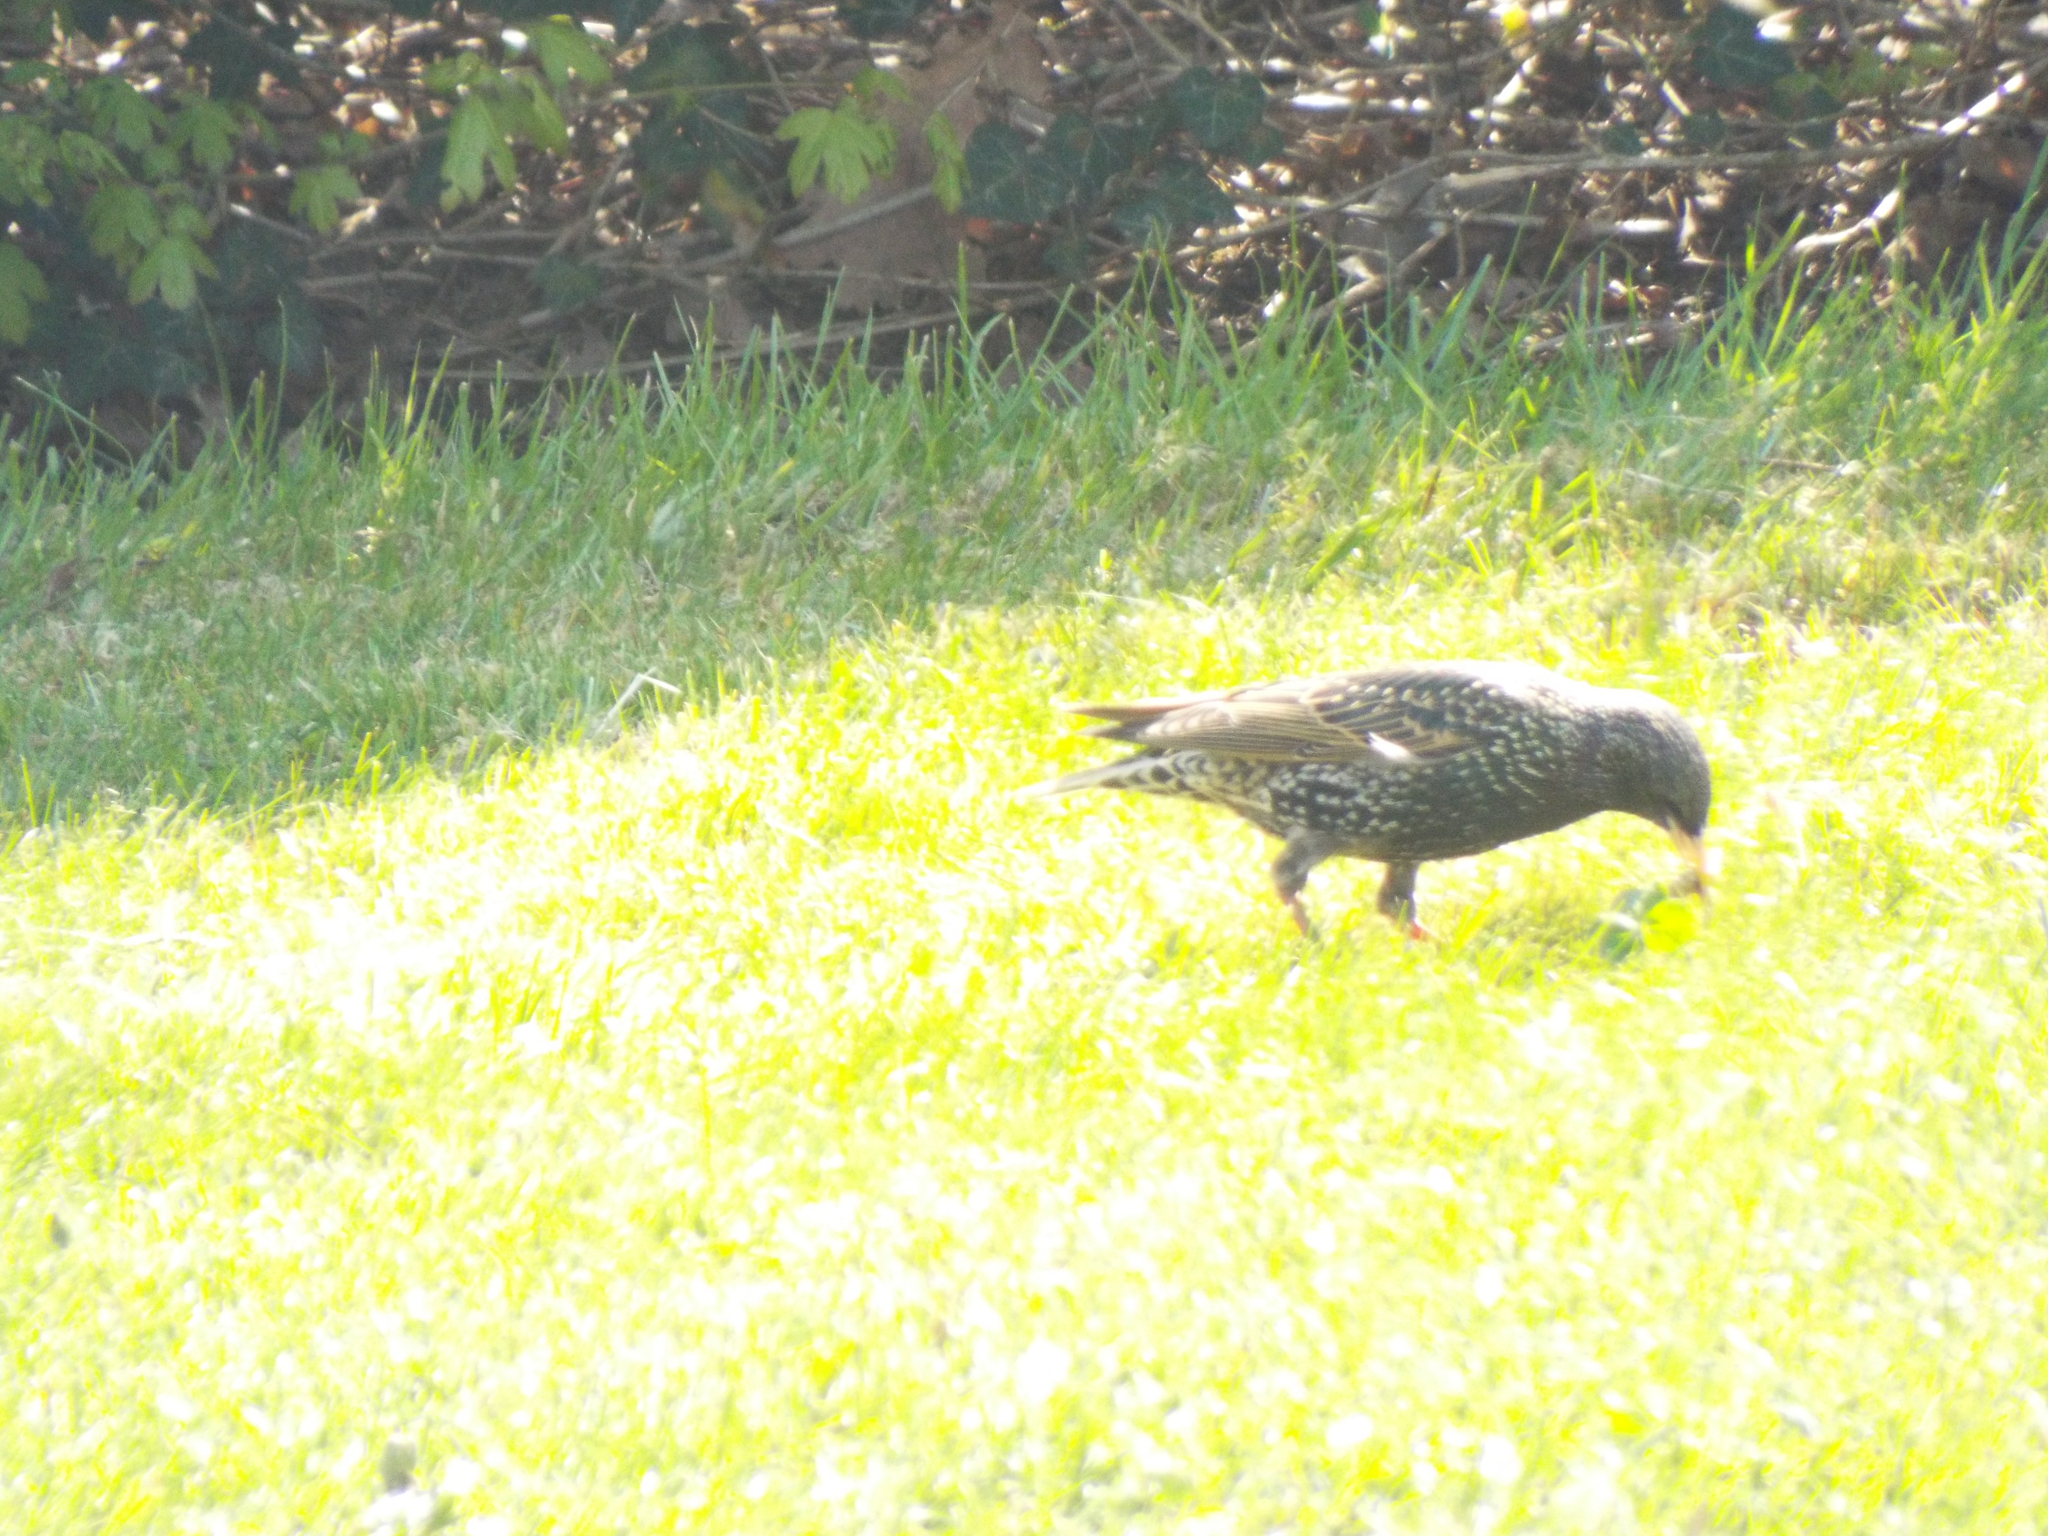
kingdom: Animalia
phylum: Chordata
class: Aves
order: Passeriformes
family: Sturnidae
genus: Sturnus
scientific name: Sturnus vulgaris
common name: Common starling
